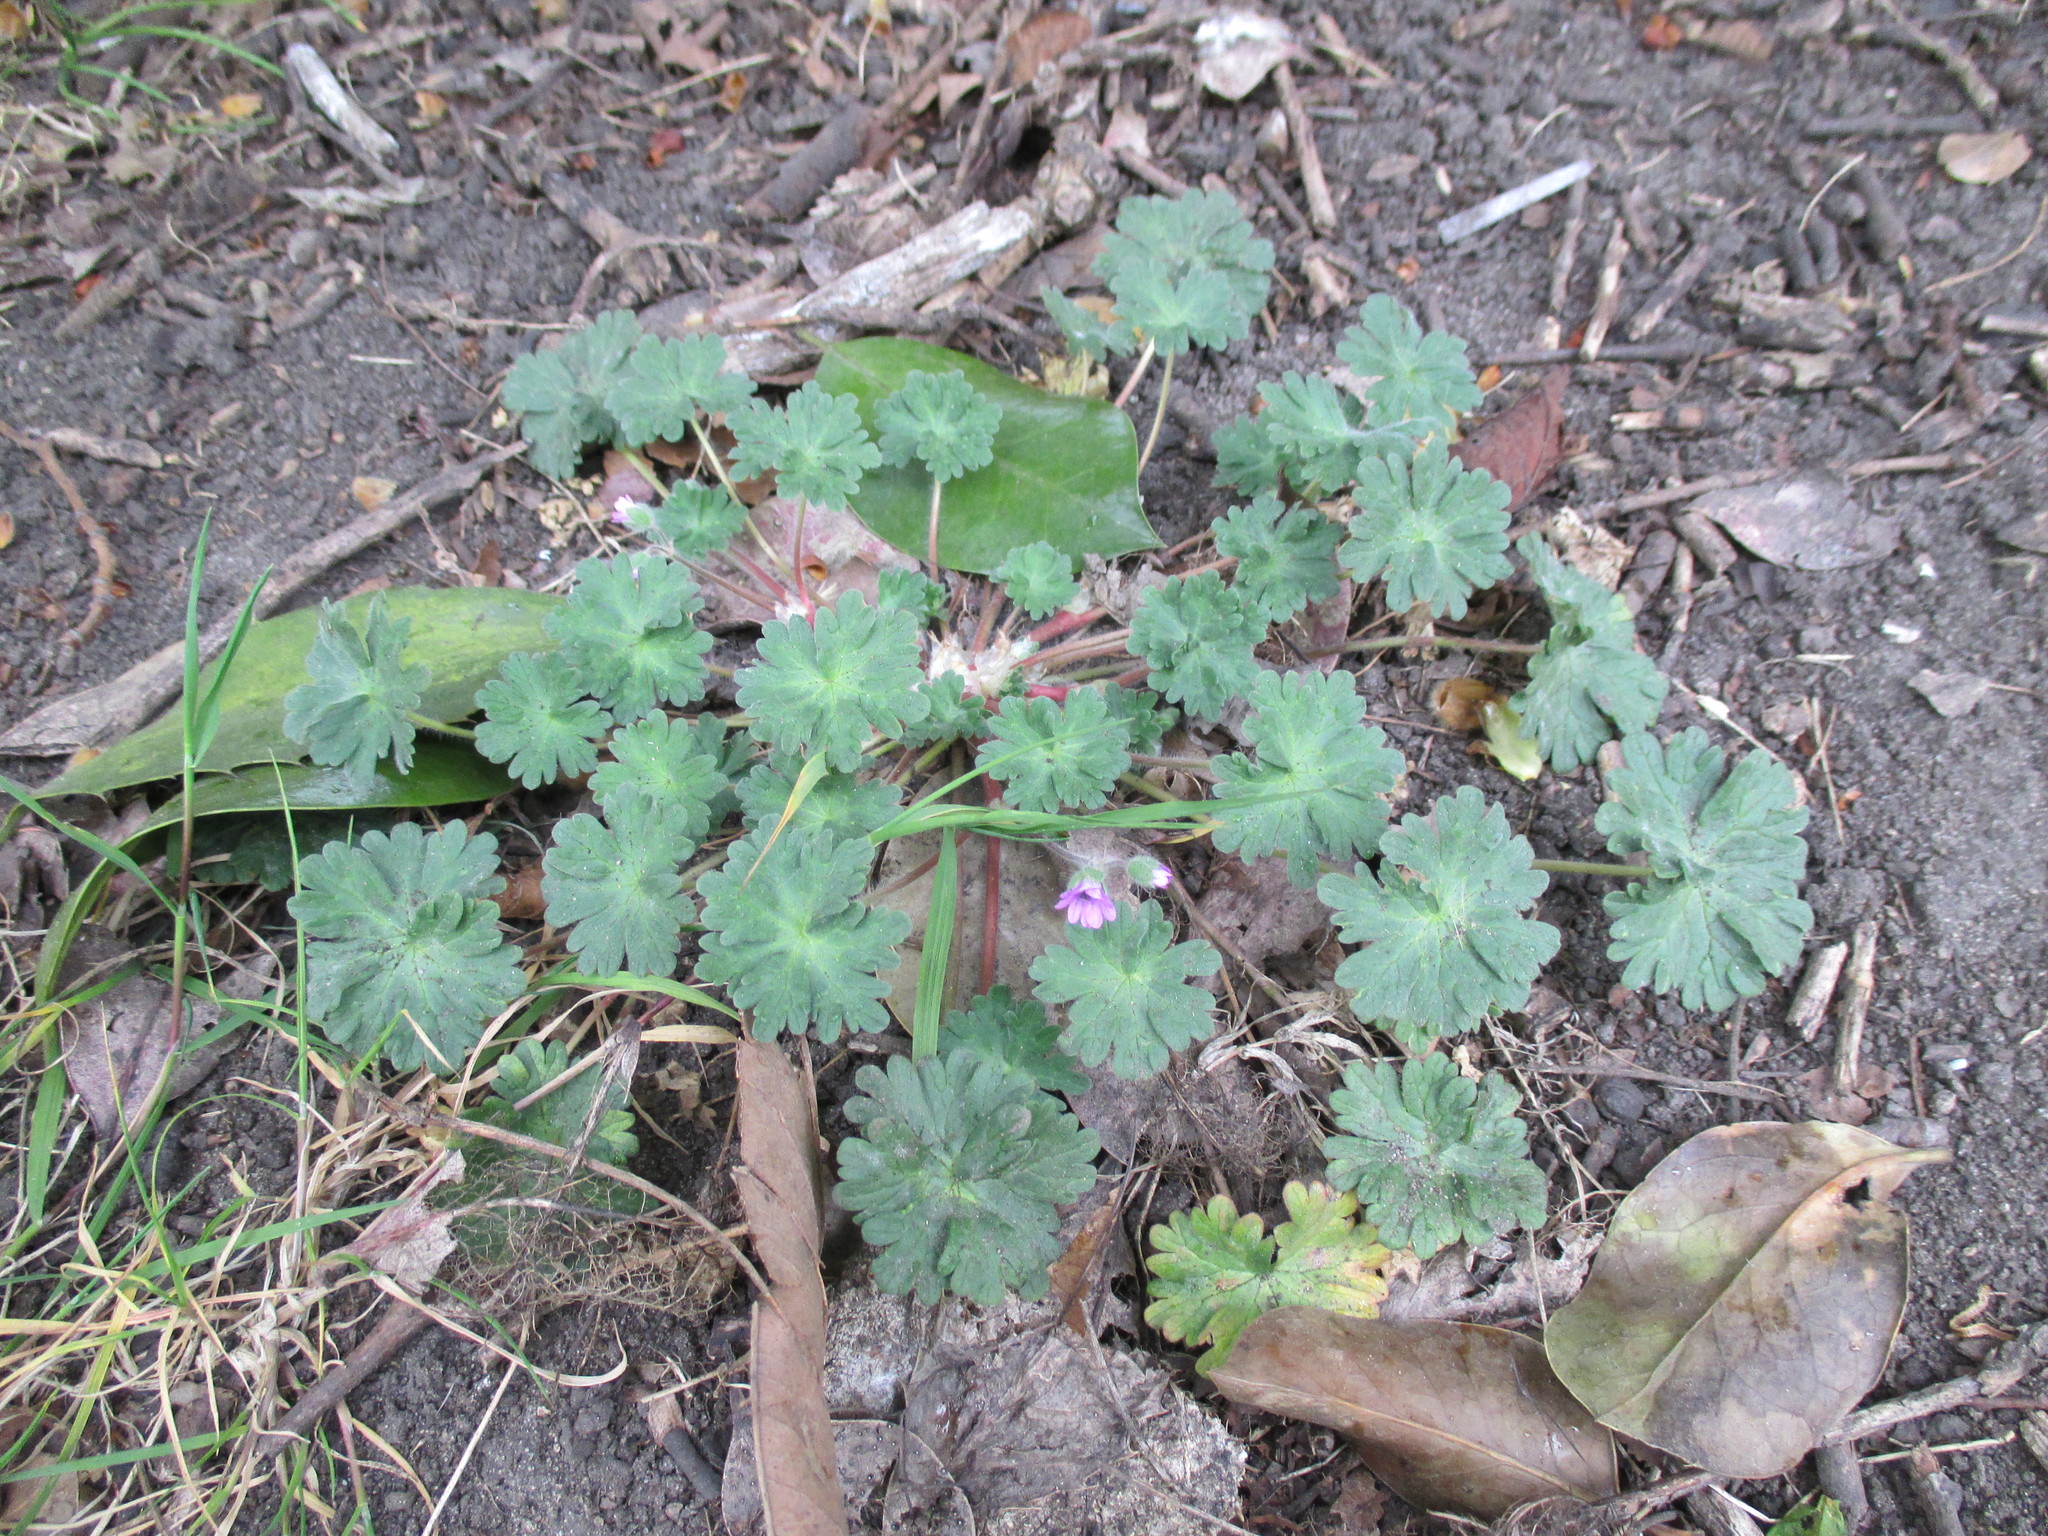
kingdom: Plantae
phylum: Tracheophyta
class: Magnoliopsida
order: Geraniales
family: Geraniaceae
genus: Geranium
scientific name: Geranium molle
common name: Dove's-foot crane's-bill
